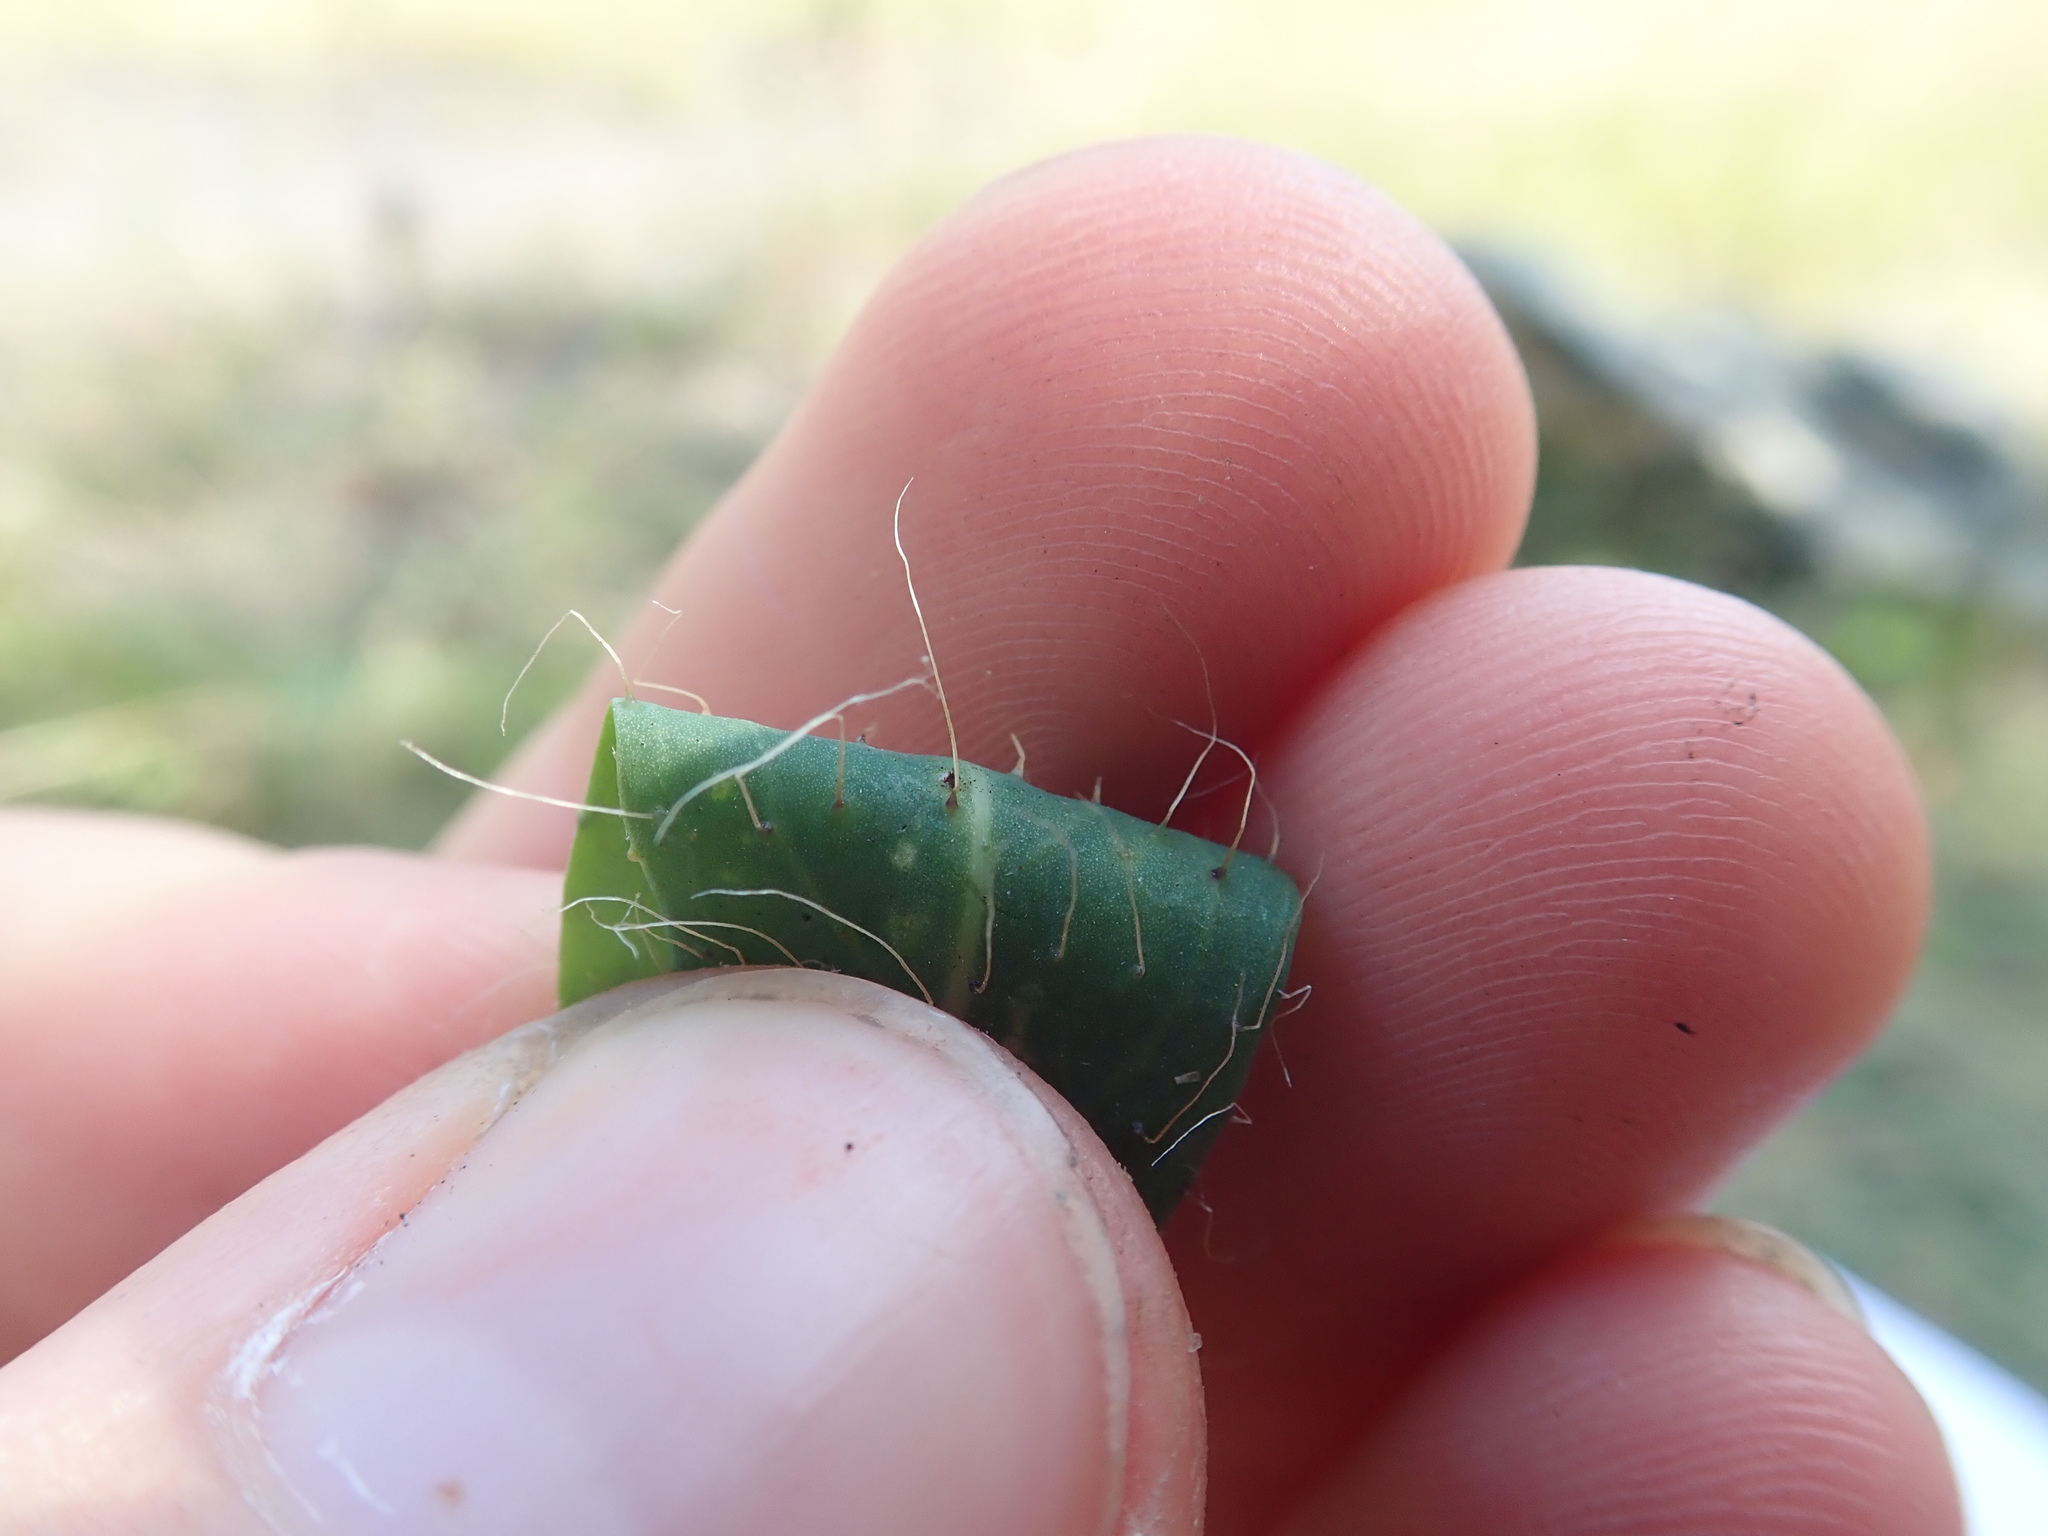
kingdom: Plantae
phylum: Tracheophyta
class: Magnoliopsida
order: Asterales
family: Asteraceae
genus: Pilosella
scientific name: Pilosella bauhini
